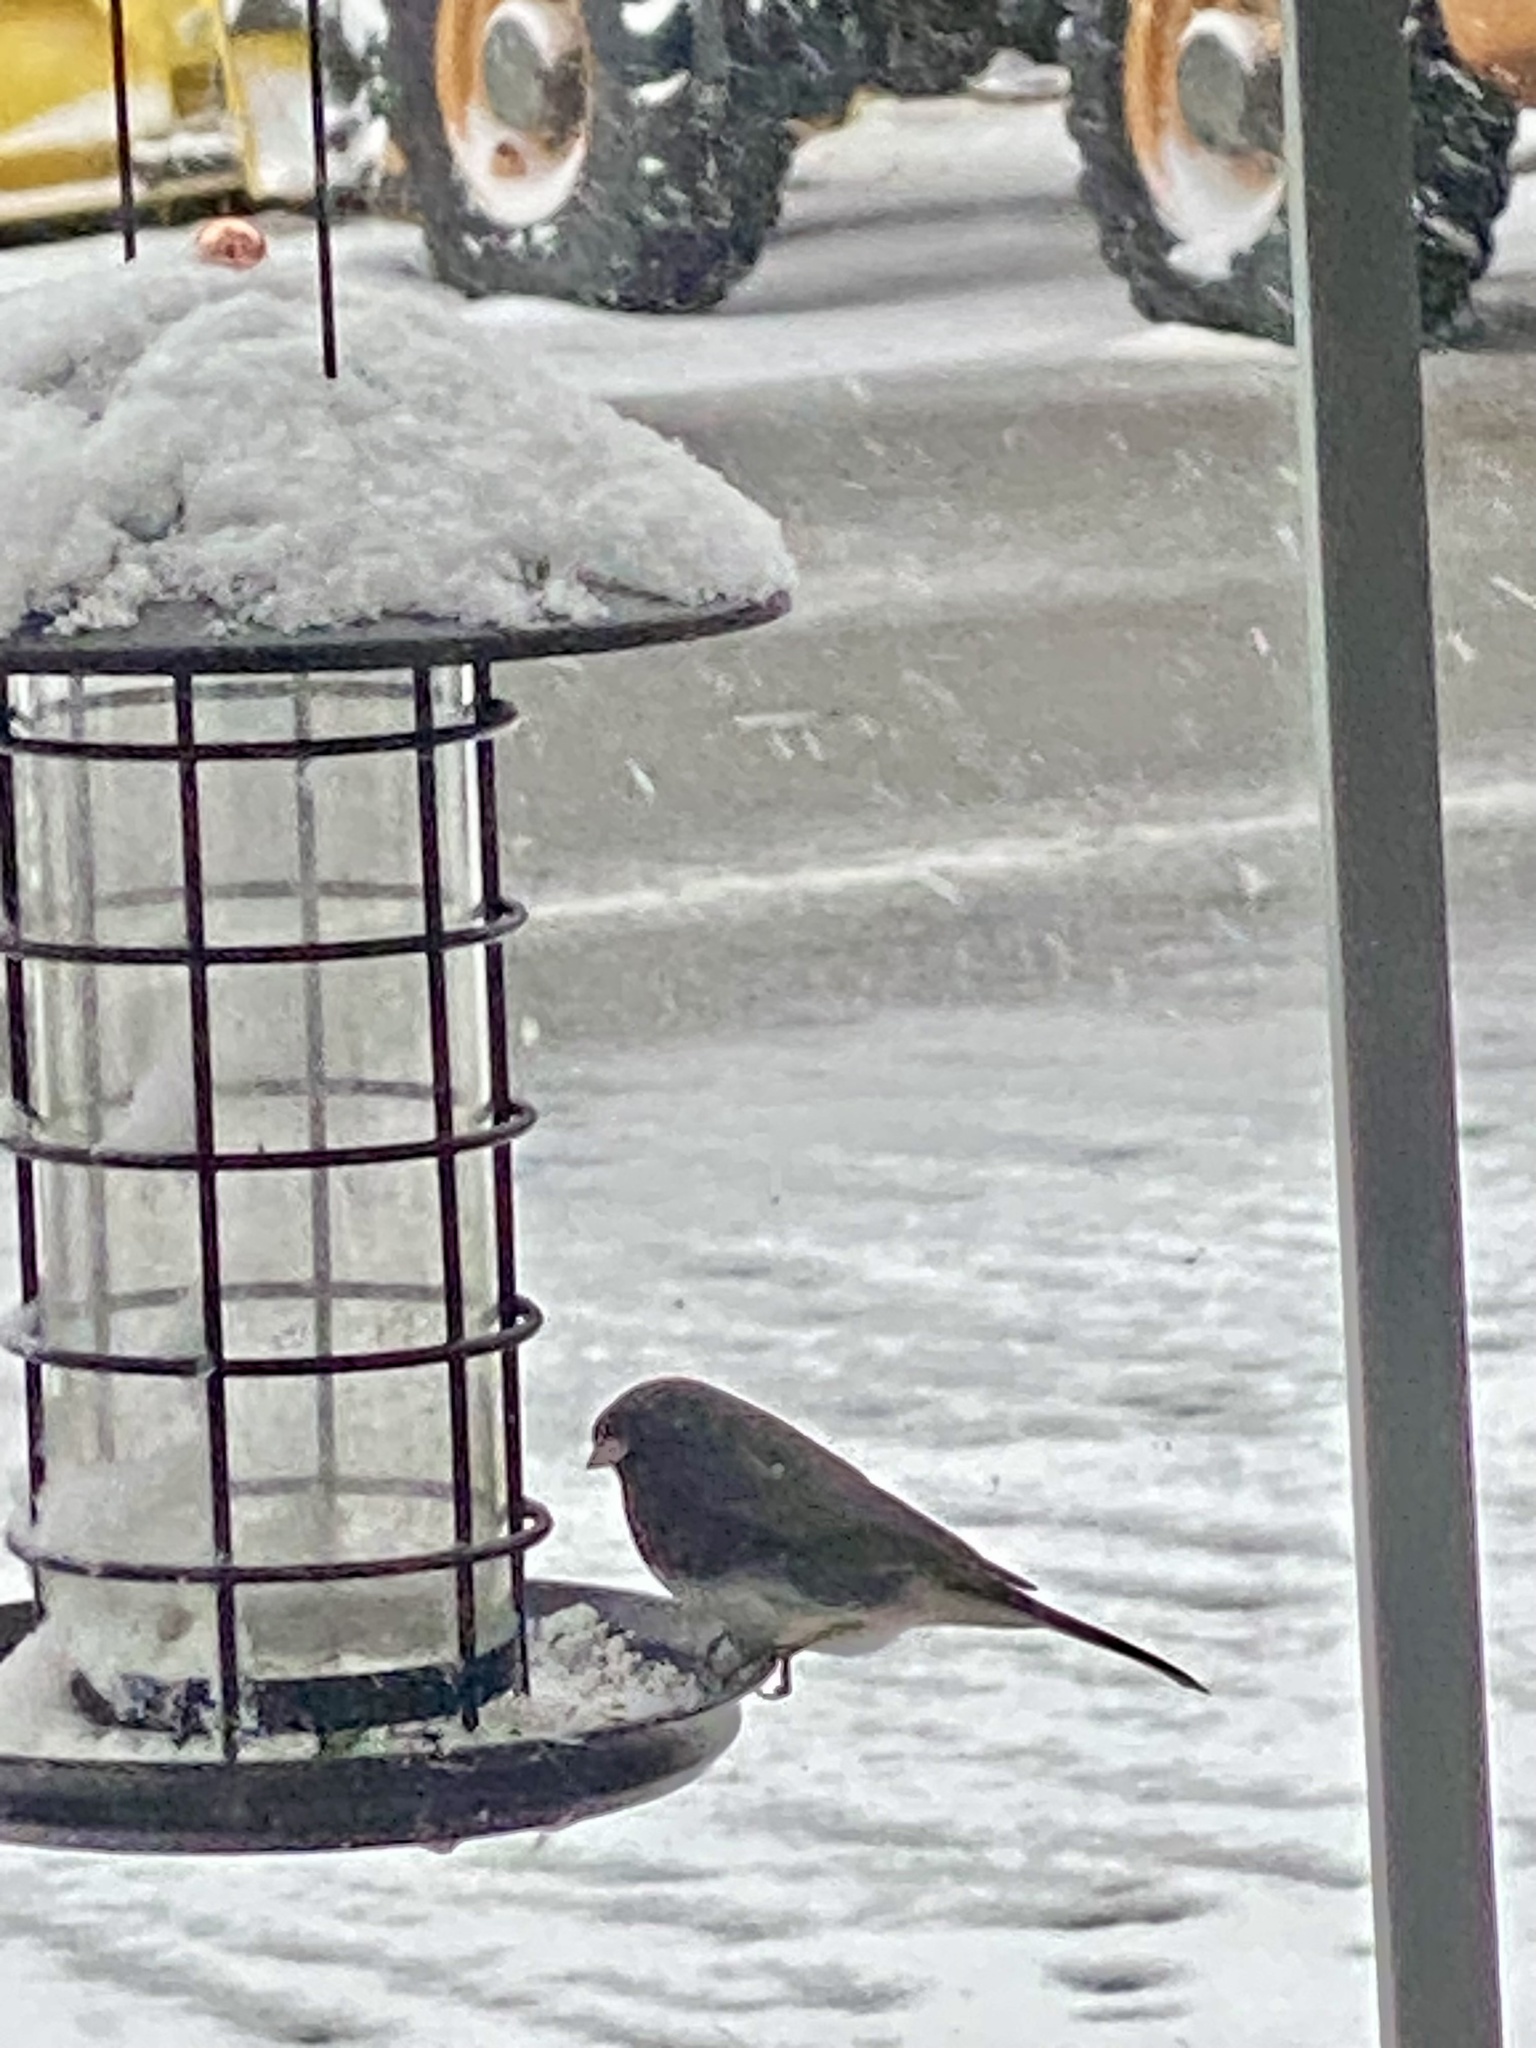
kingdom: Animalia
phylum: Chordata
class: Aves
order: Passeriformes
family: Passerellidae
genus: Junco
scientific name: Junco hyemalis
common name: Dark-eyed junco
